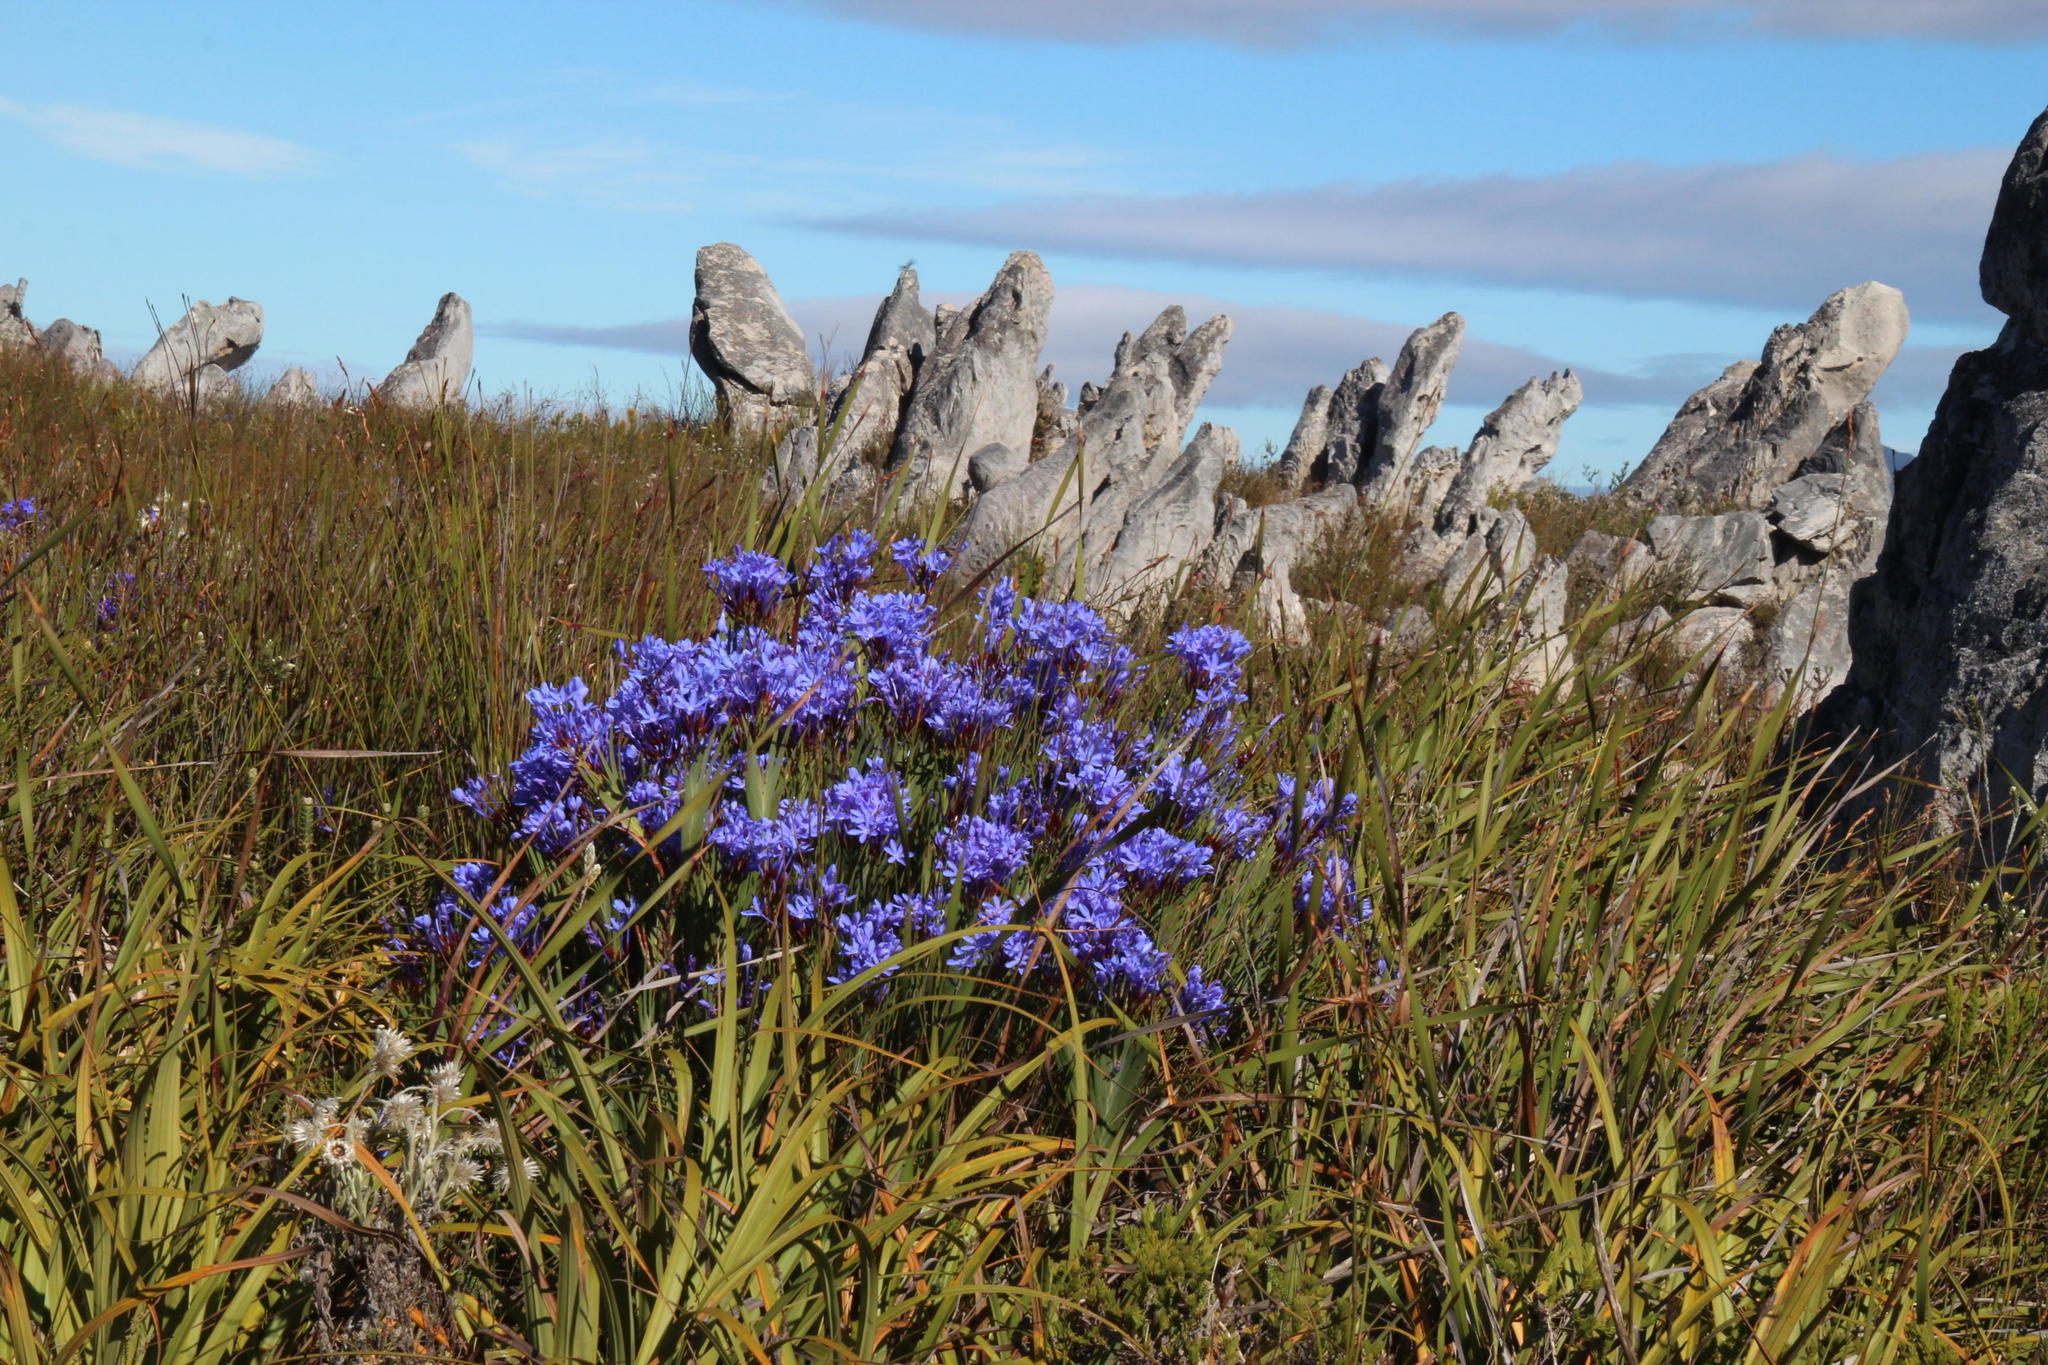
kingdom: Plantae
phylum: Tracheophyta
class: Liliopsida
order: Asparagales
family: Iridaceae
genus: Nivenia
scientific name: Nivenia stokoei
